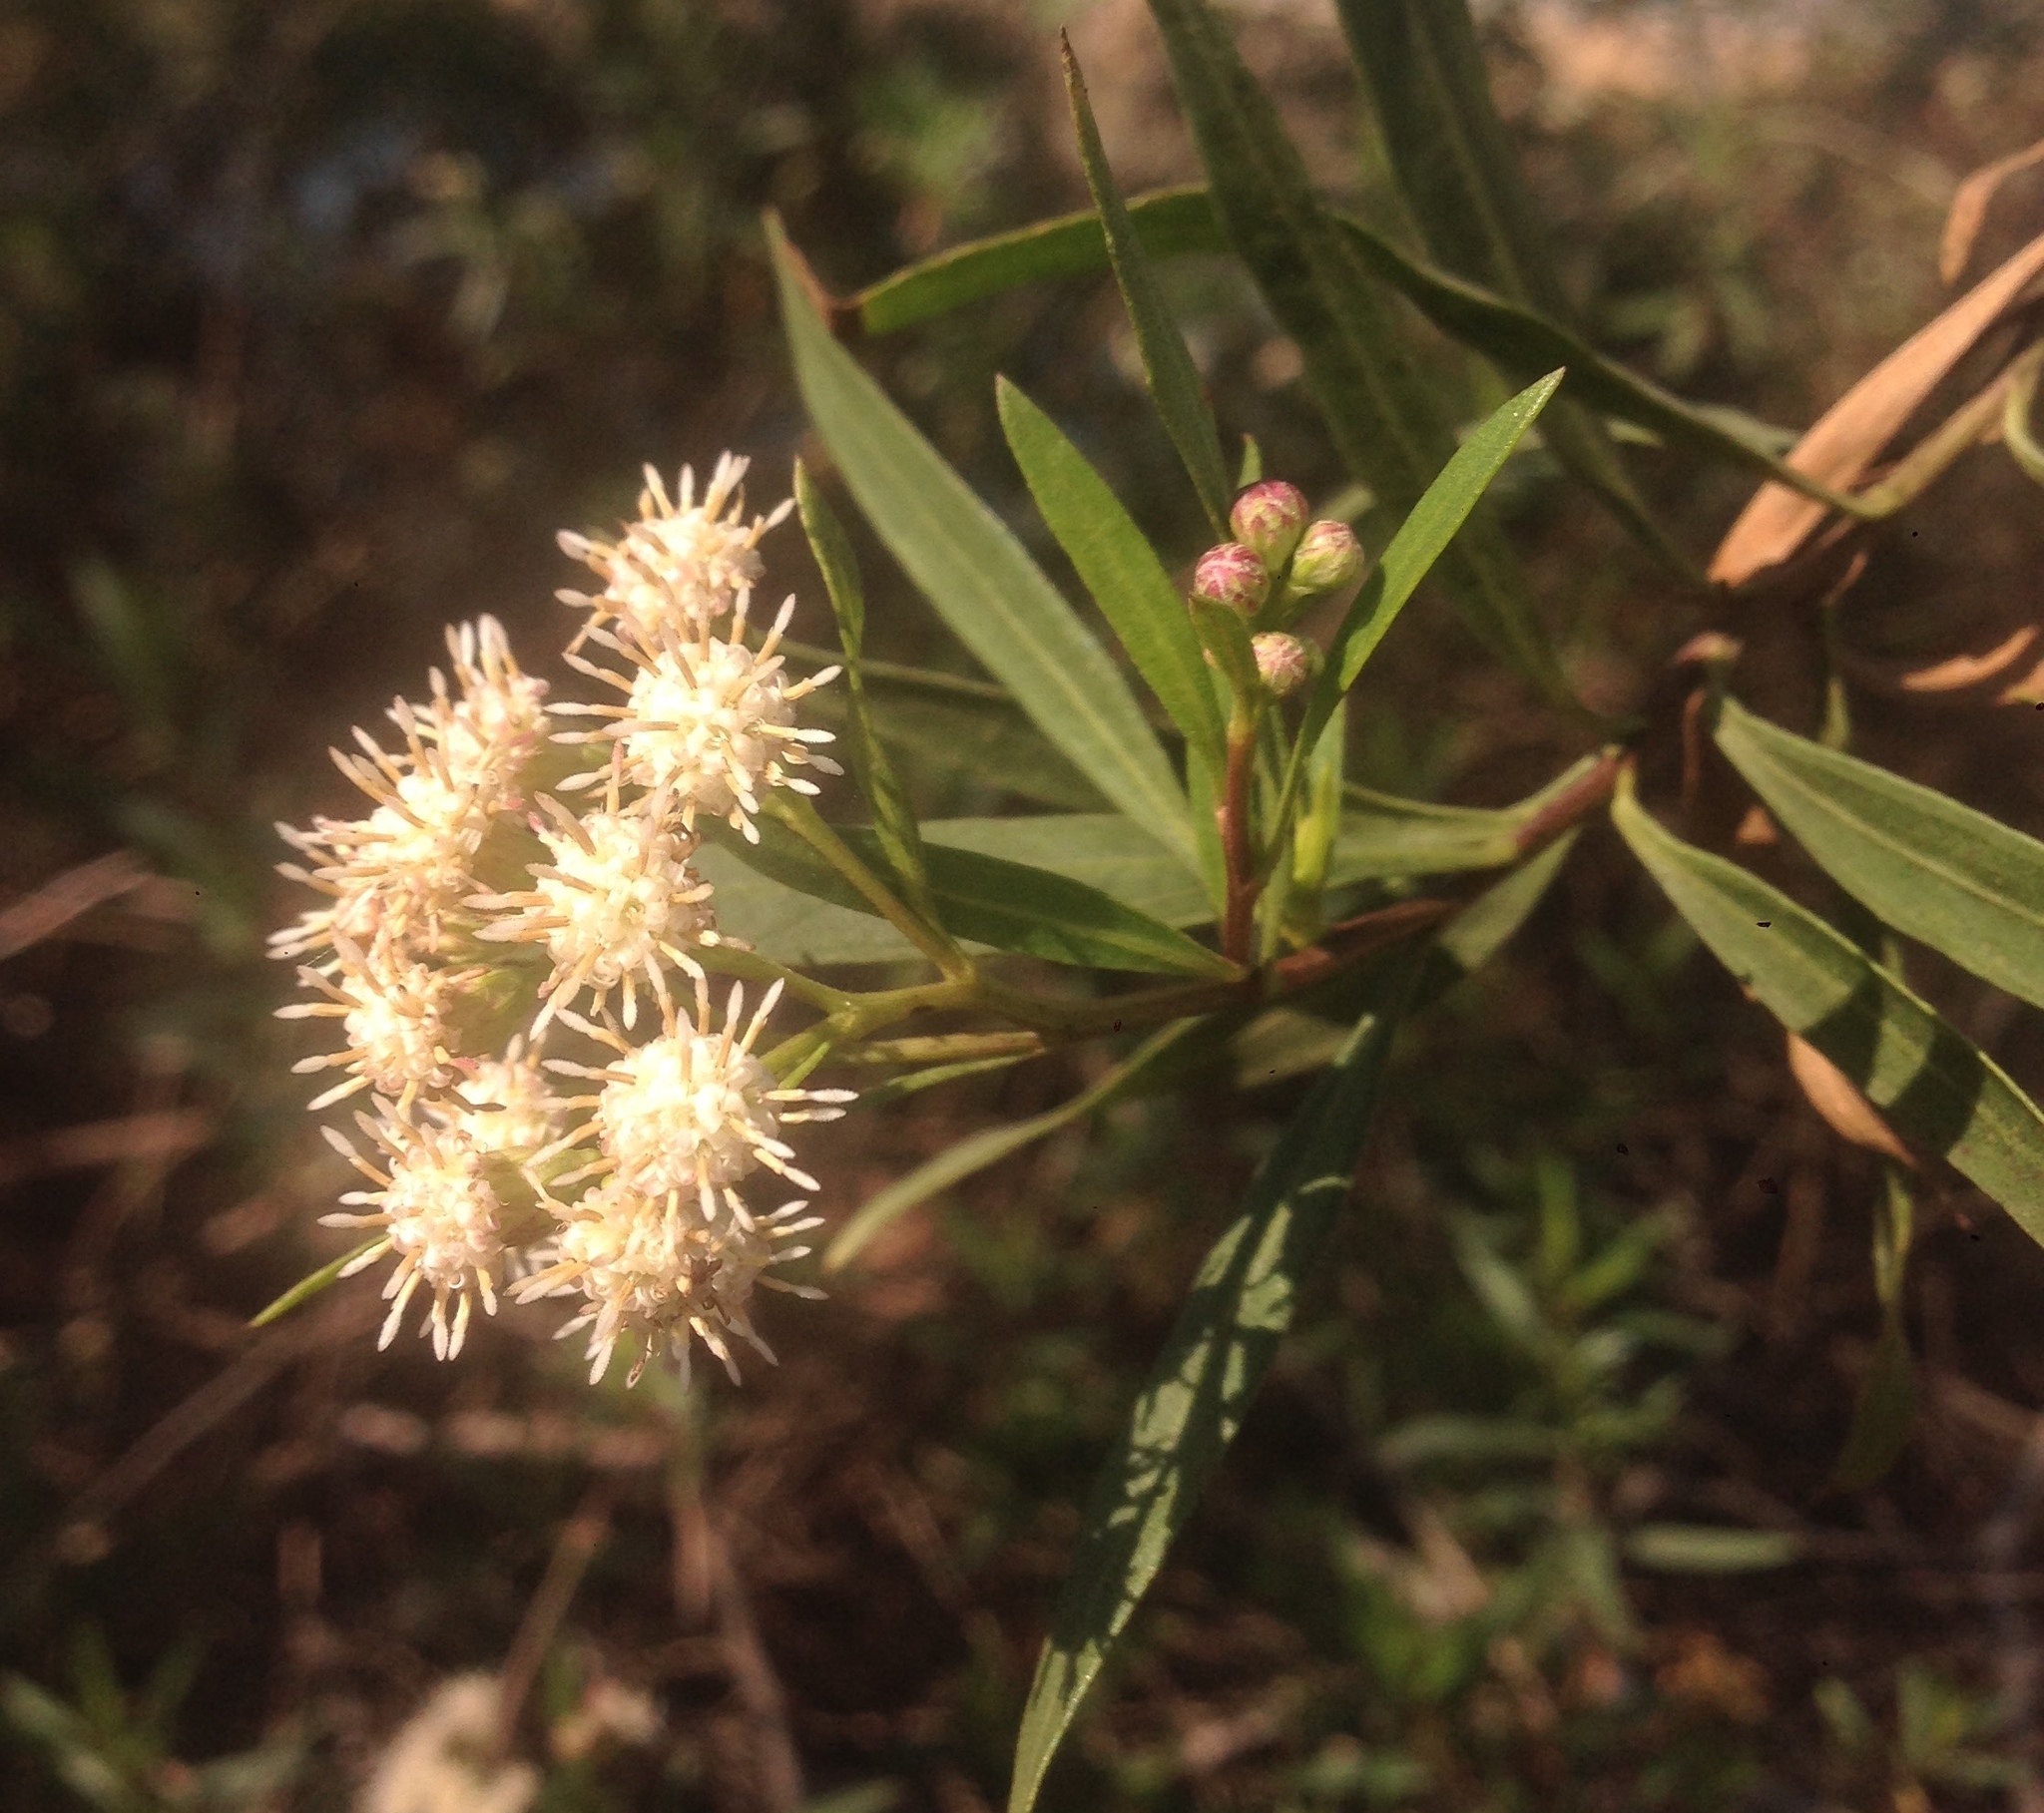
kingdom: Plantae
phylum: Tracheophyta
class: Magnoliopsida
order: Asterales
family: Asteraceae
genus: Baccharis
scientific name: Baccharis salicifolia
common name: Sticky baccharis
